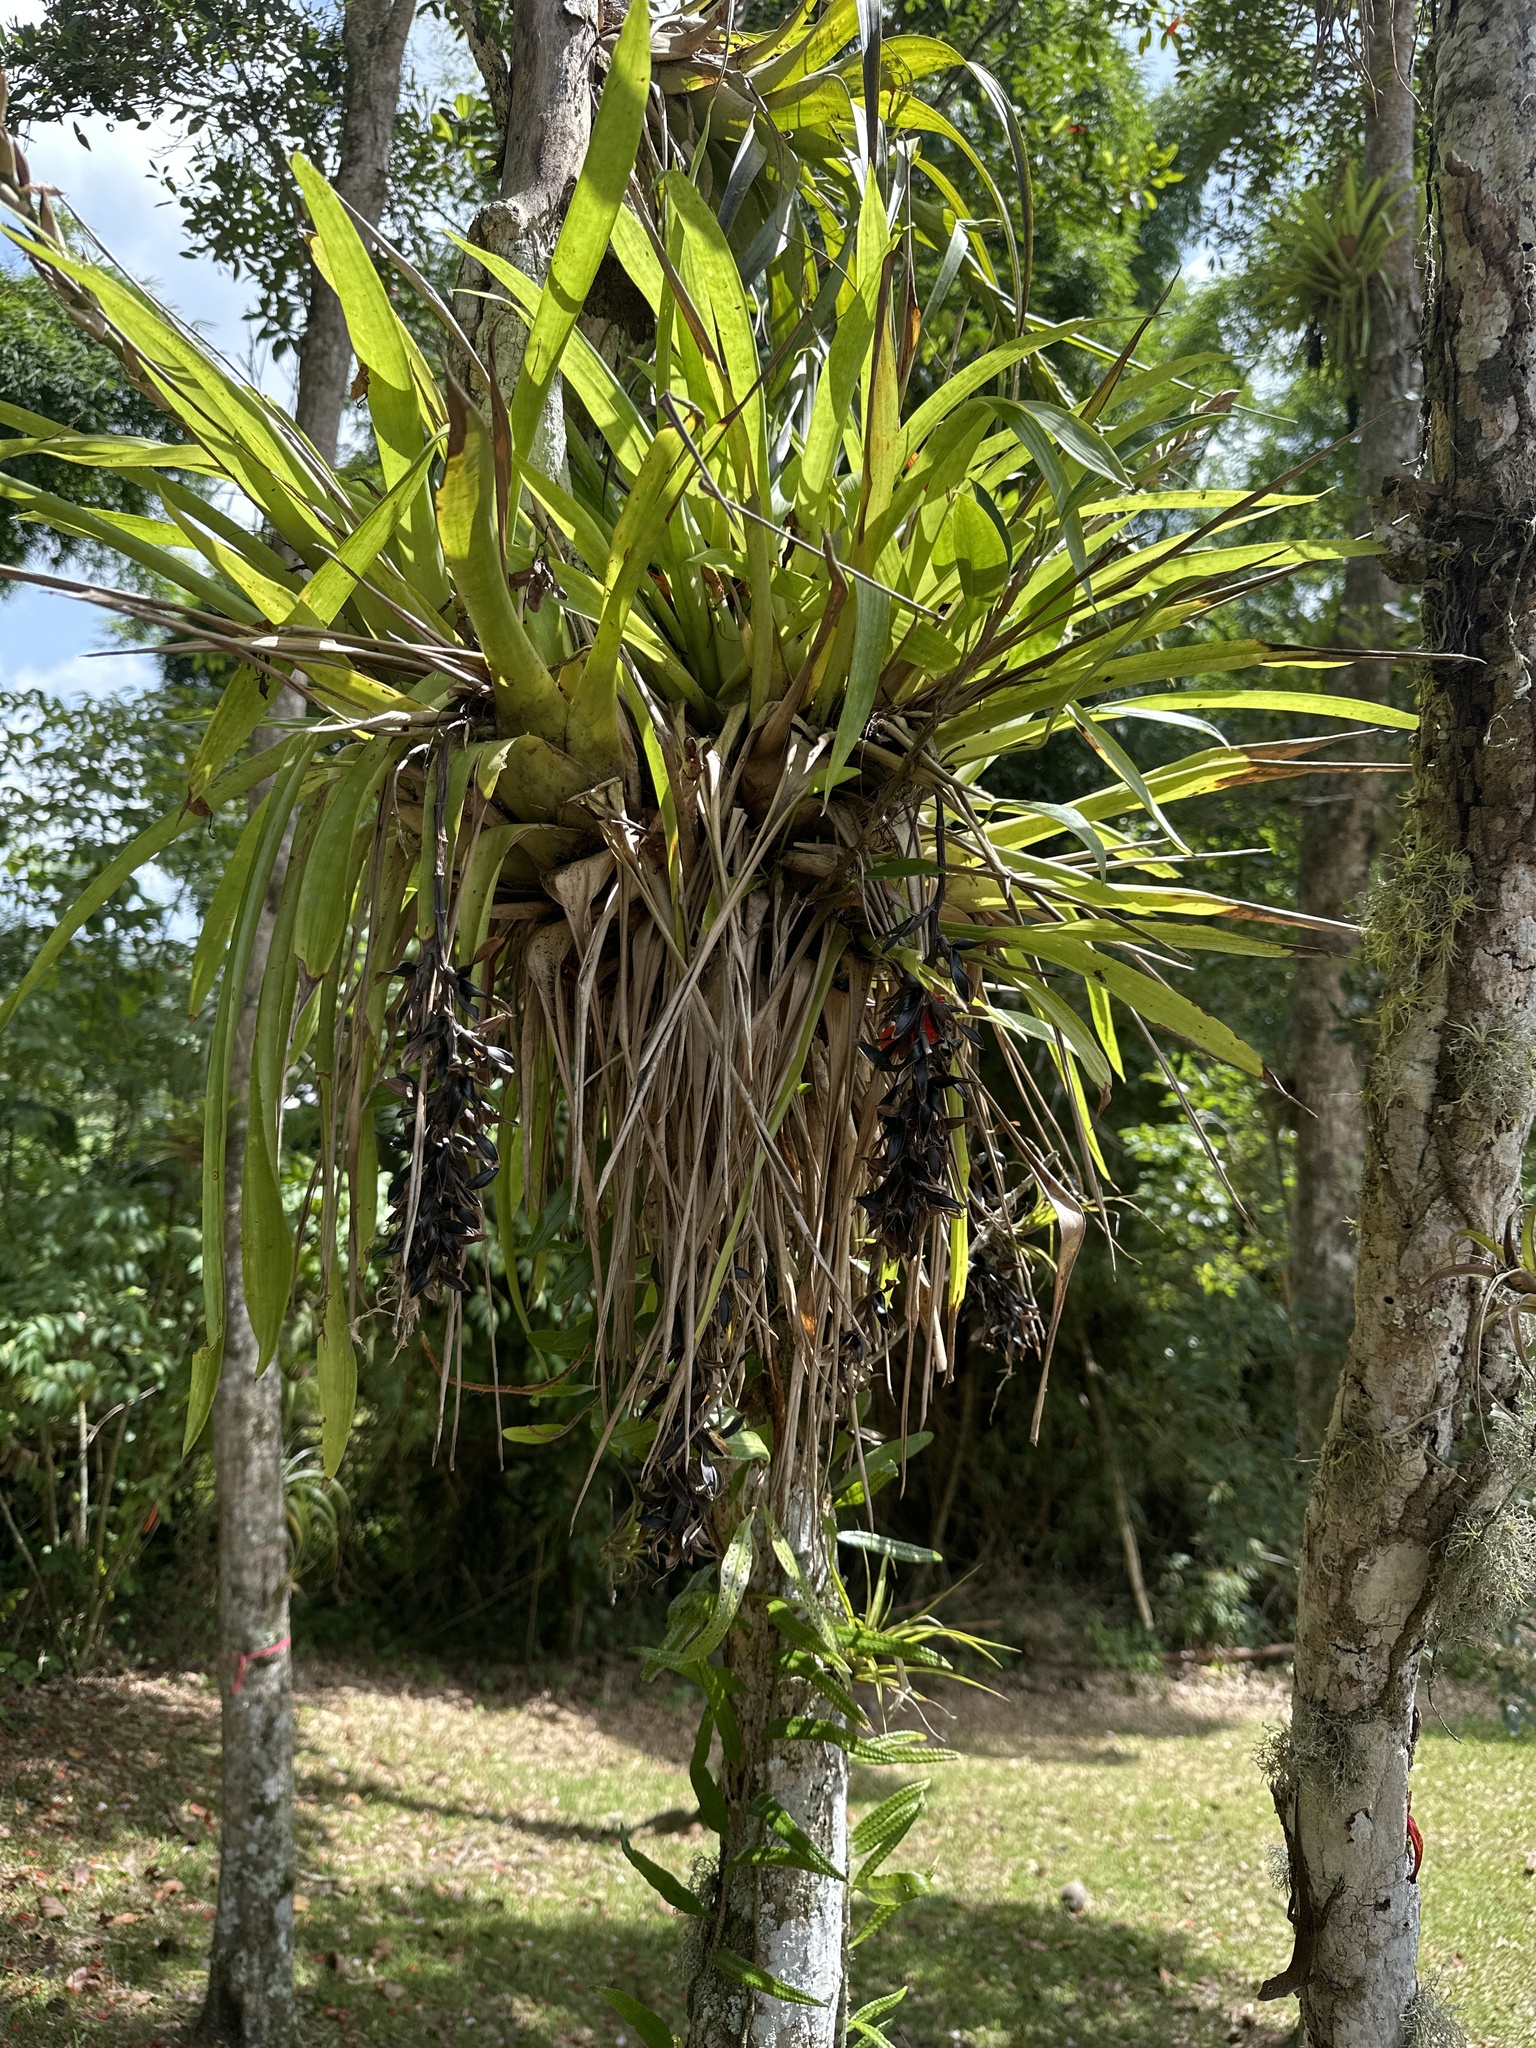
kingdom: Plantae
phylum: Tracheophyta
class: Liliopsida
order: Poales
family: Bromeliaceae
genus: Guzmania
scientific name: Guzmania monostachia
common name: West indian tufted airplant
